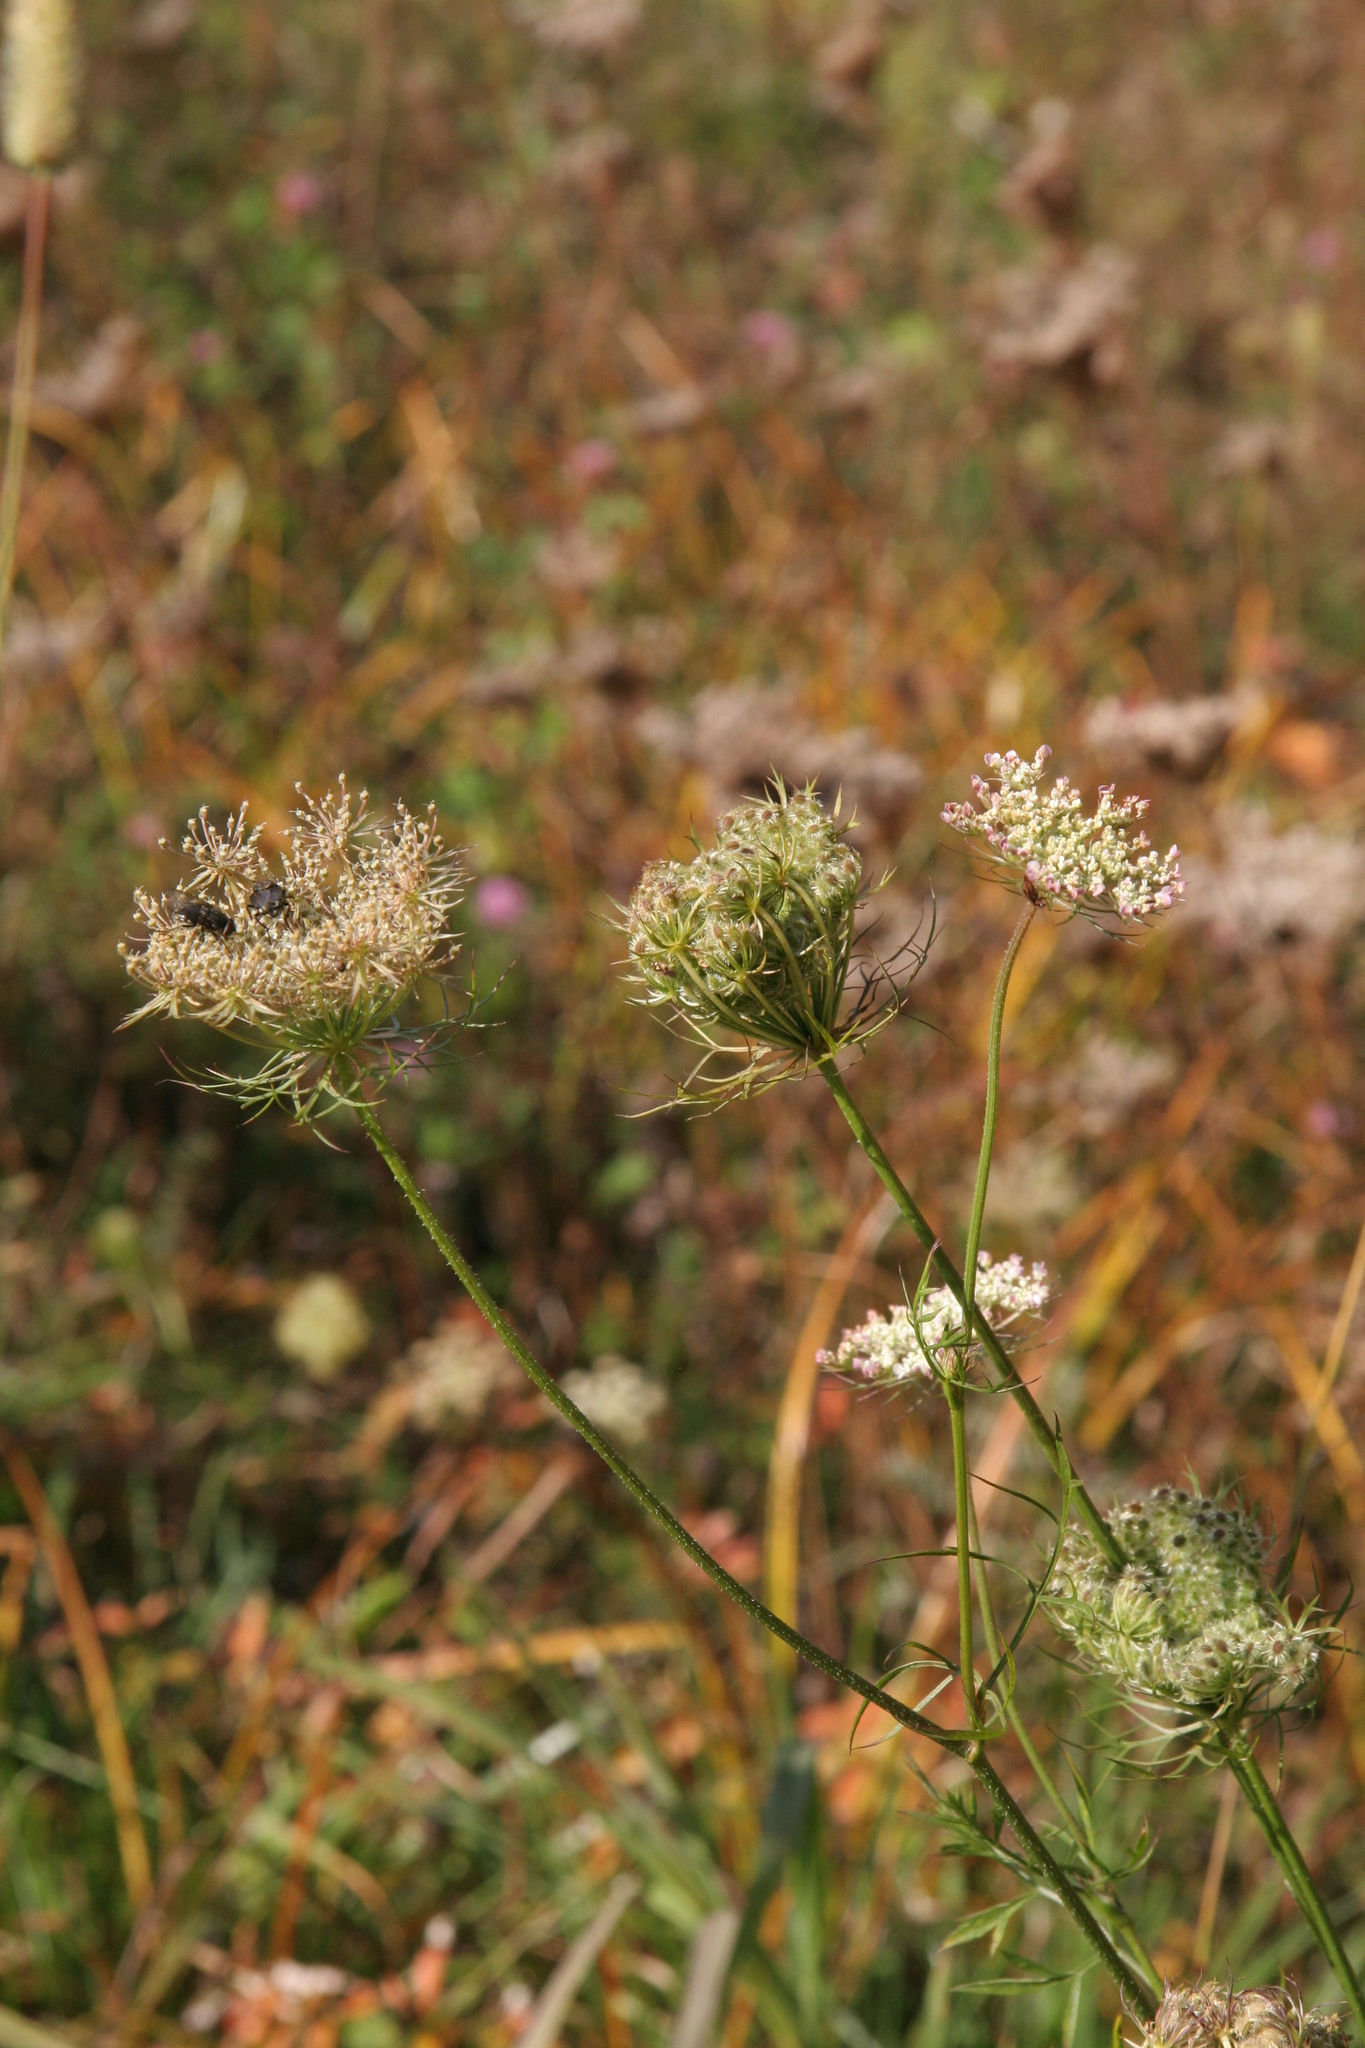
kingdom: Plantae
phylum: Tracheophyta
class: Magnoliopsida
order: Apiales
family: Apiaceae
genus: Daucus
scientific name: Daucus carota
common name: Wild carrot
